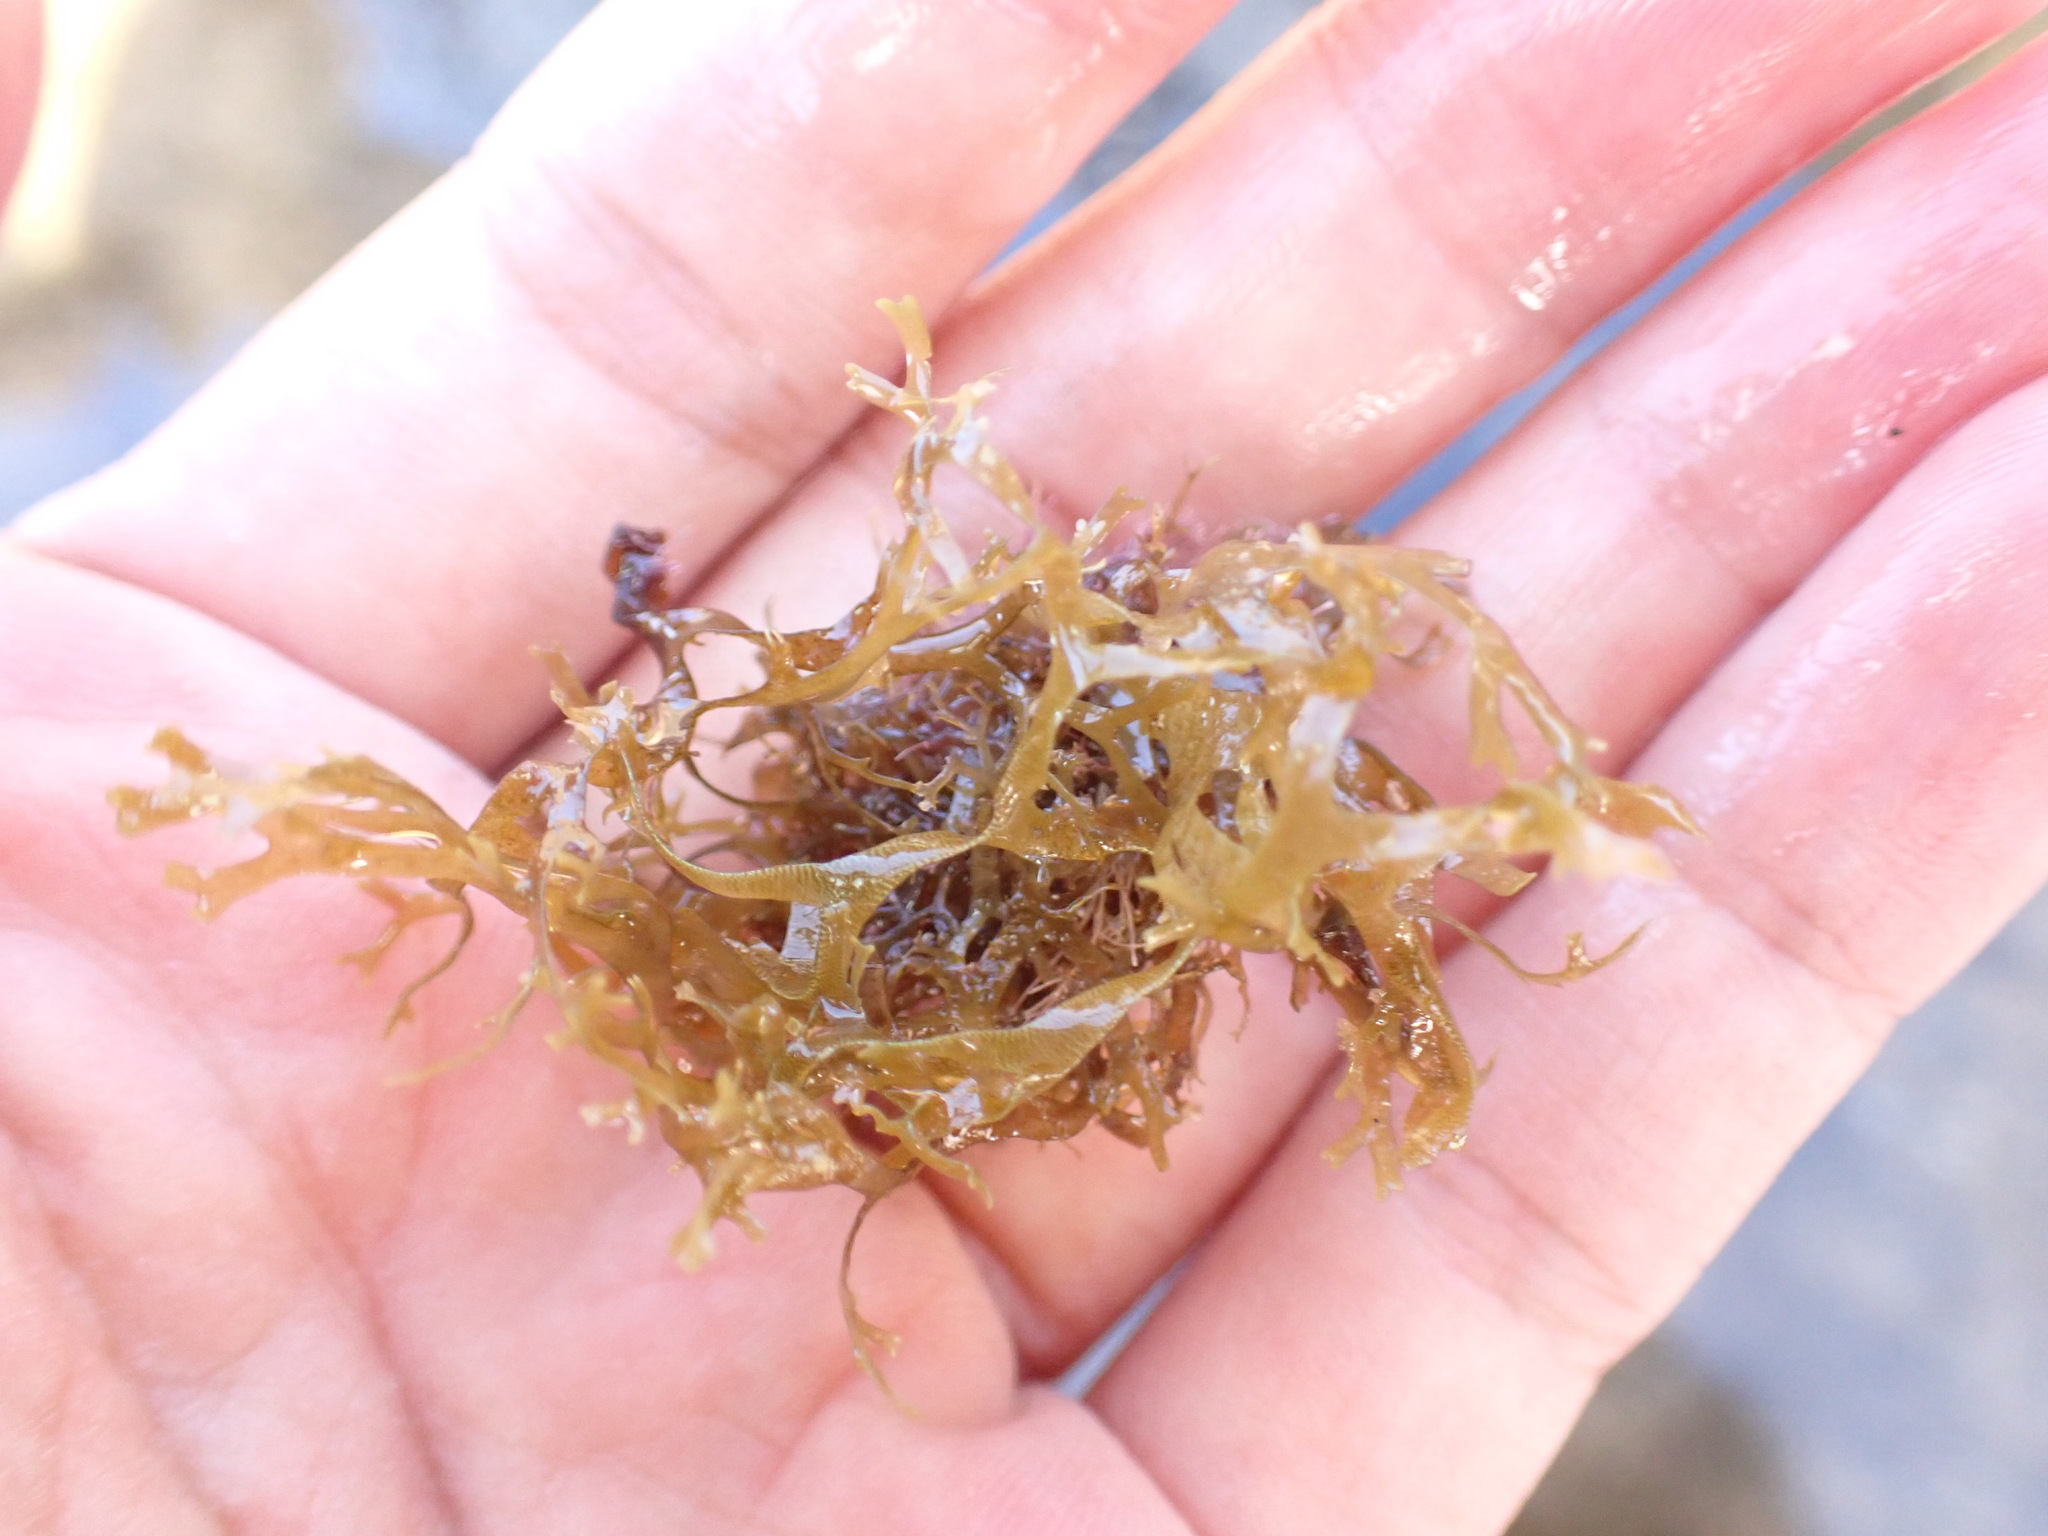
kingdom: Chromista
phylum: Ochrophyta
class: Phaeophyceae
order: Dictyotales
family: Dictyotaceae
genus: Dictyota
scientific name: Dictyota dichotoma
